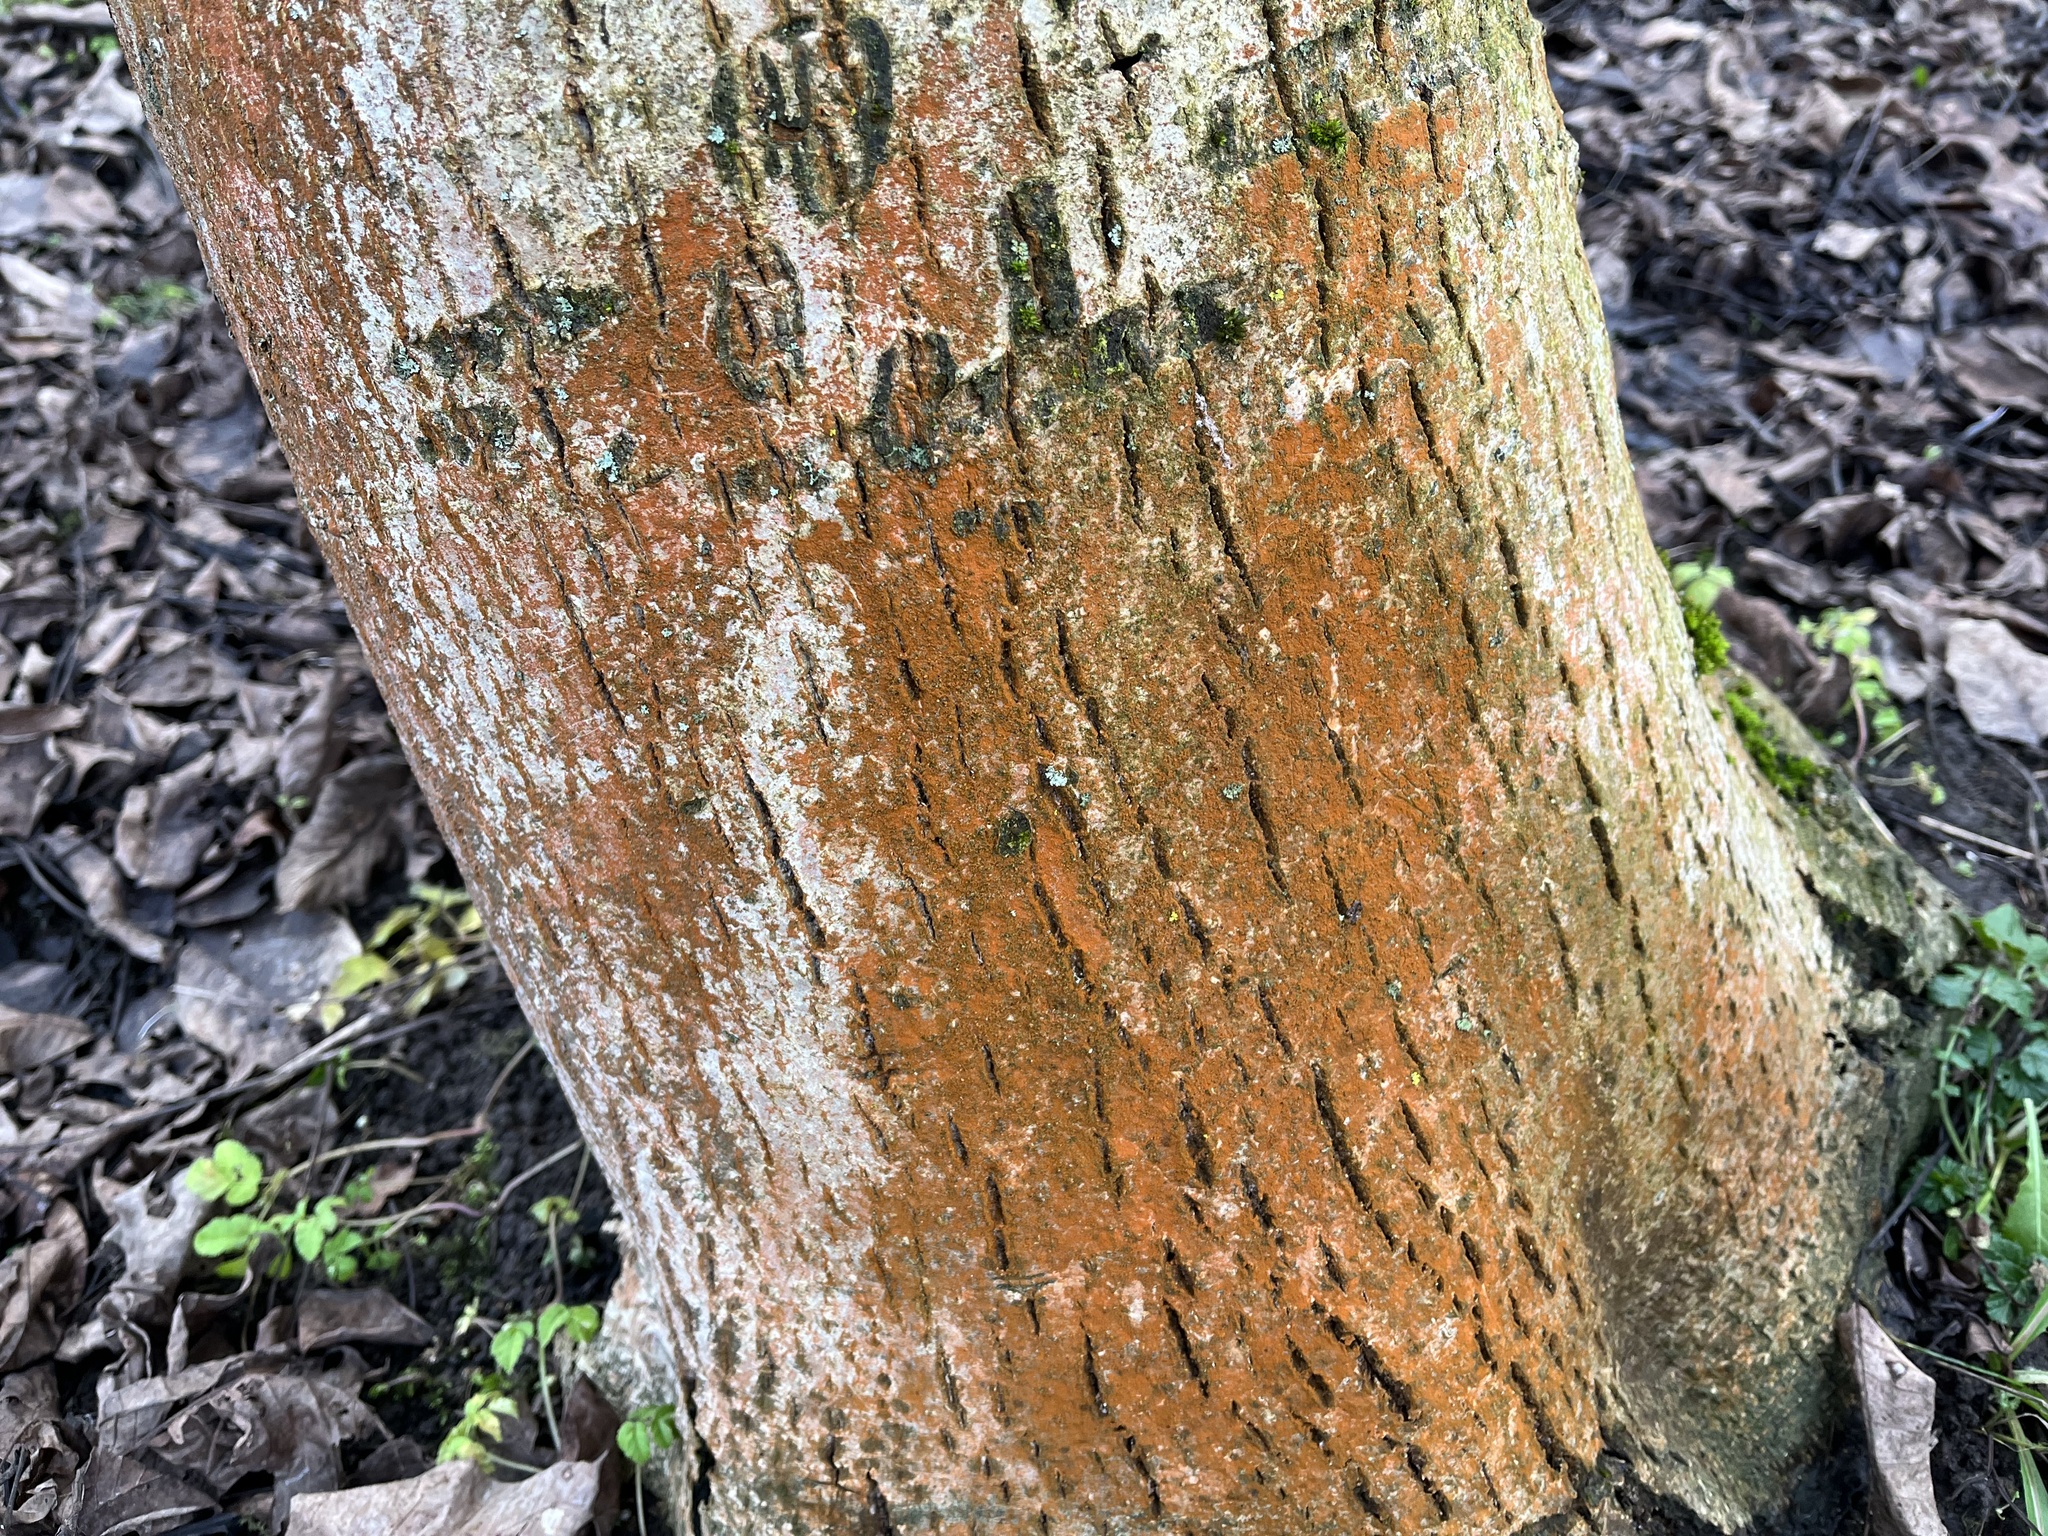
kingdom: Plantae
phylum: Chlorophyta
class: Ulvophyceae
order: Trentepohliales
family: Trentepohliaceae
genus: Trentepohlia
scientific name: Trentepohlia
